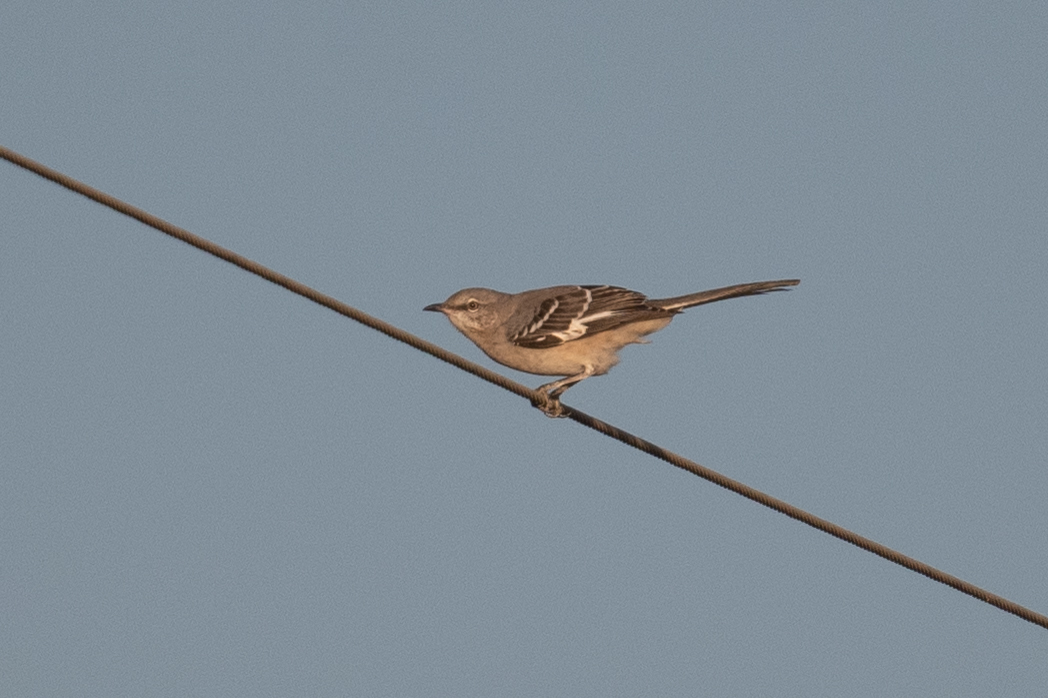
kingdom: Animalia
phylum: Chordata
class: Aves
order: Passeriformes
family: Mimidae
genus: Mimus
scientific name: Mimus polyglottos
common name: Northern mockingbird
